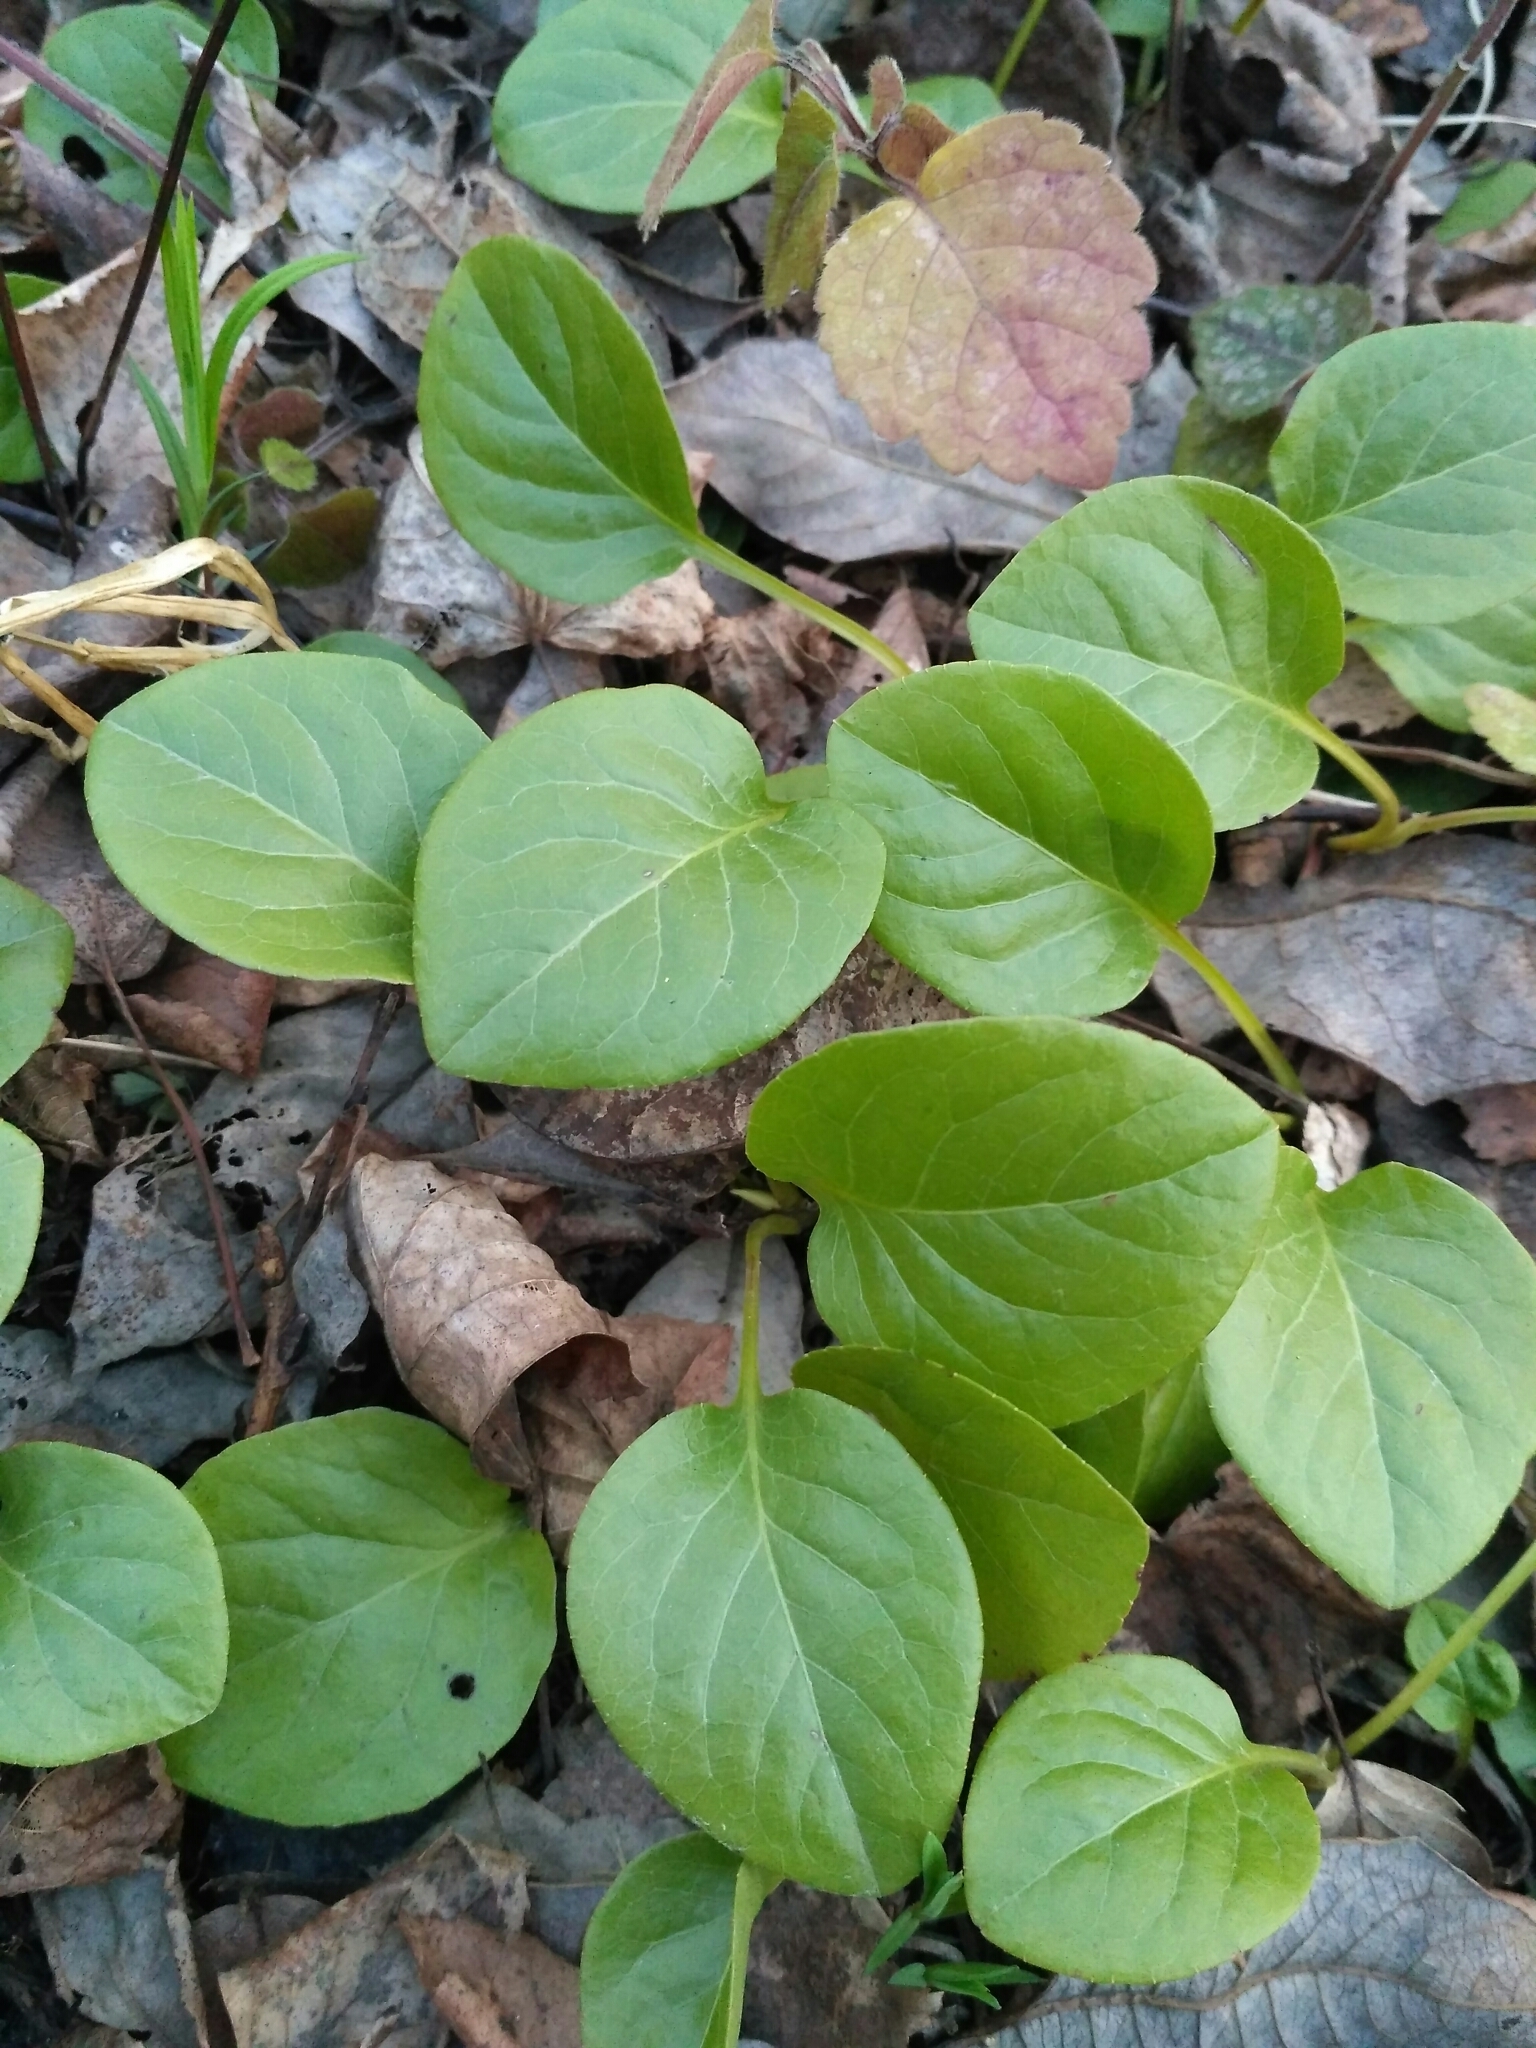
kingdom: Plantae
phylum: Tracheophyta
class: Magnoliopsida
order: Ericales
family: Ericaceae
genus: Pyrola
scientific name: Pyrola rotundifolia
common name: Round-leaved wintergreen
